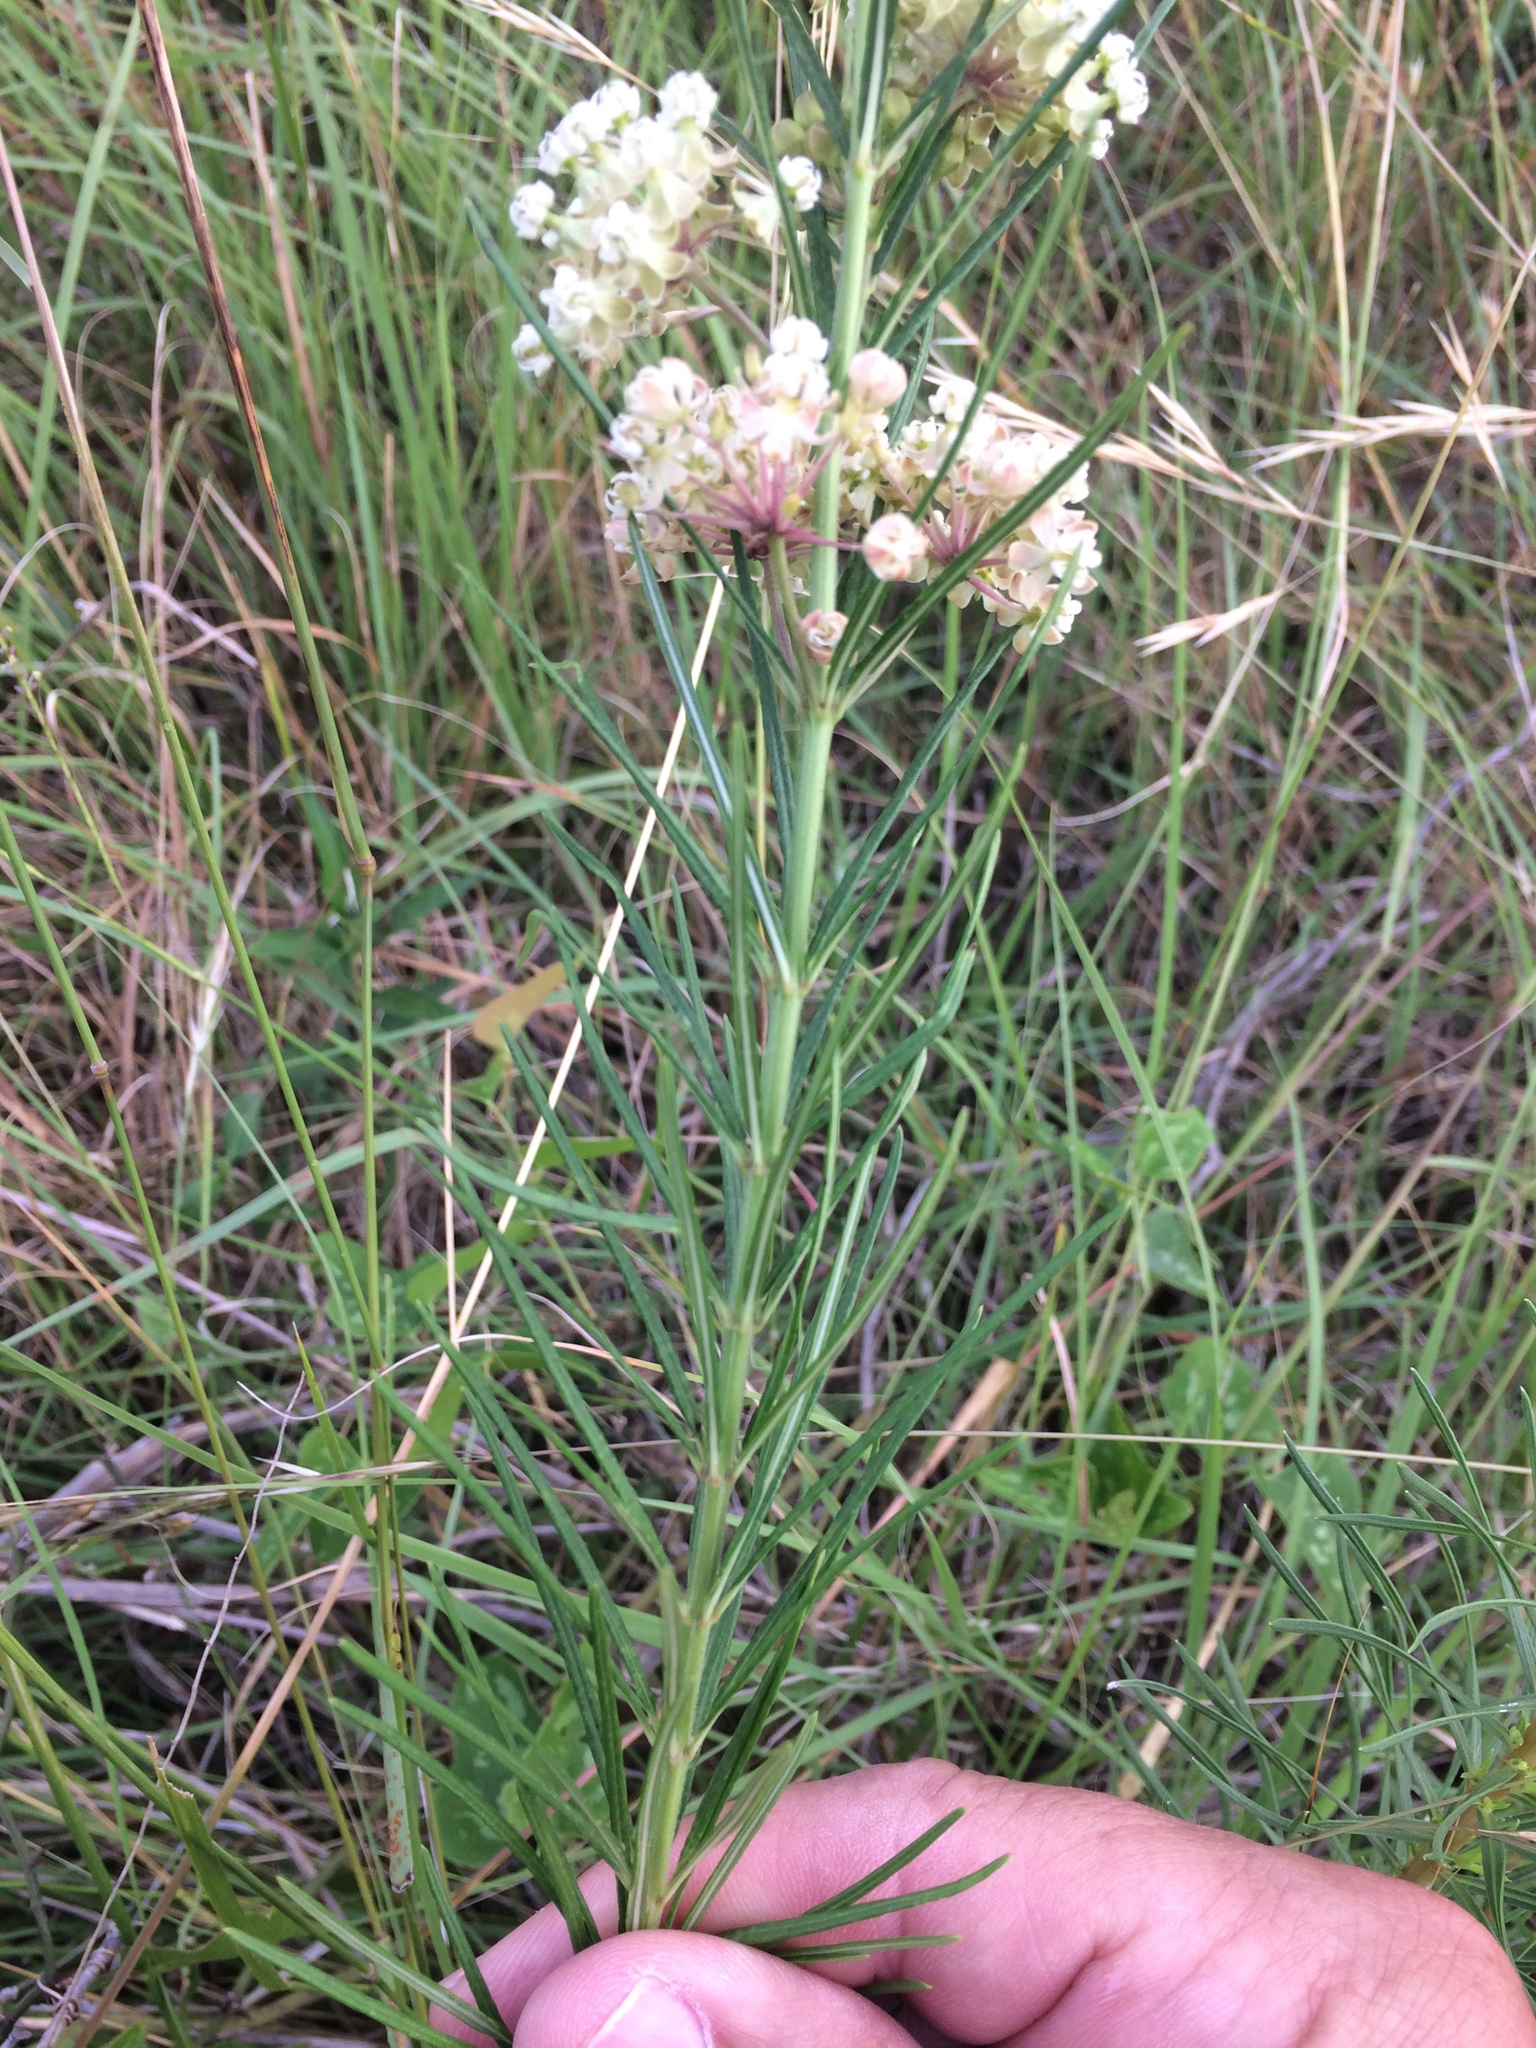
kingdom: Plantae
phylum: Tracheophyta
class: Magnoliopsida
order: Gentianales
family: Apocynaceae
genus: Asclepias
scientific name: Asclepias verticillata
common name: Eastern whorled milkweed
